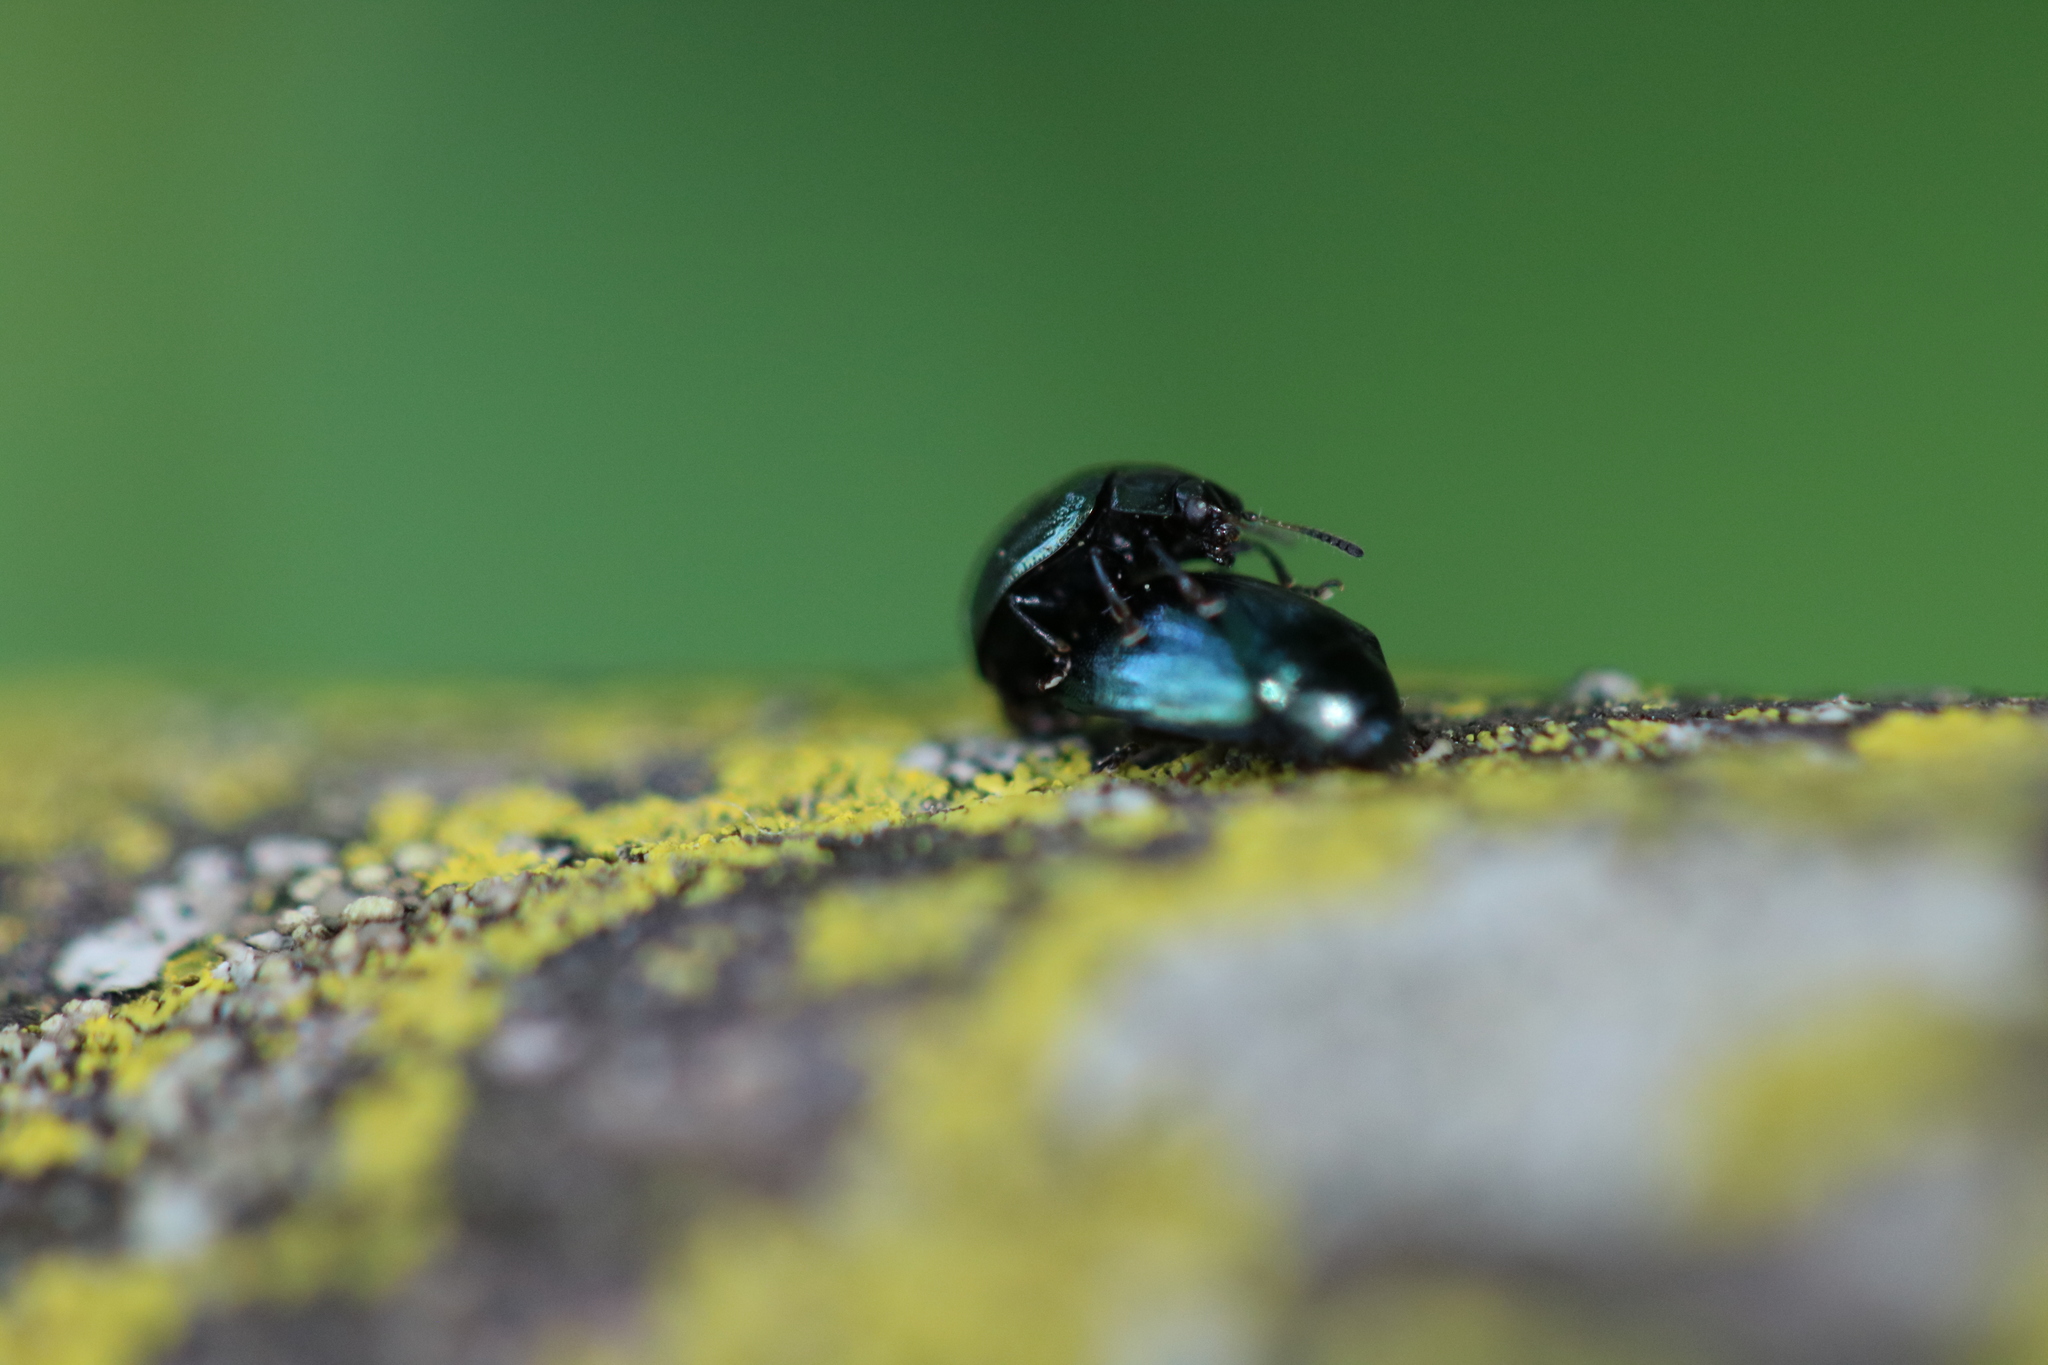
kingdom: Animalia
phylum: Arthropoda
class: Insecta
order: Coleoptera
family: Chrysomelidae
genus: Plagiodera
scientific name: Plagiodera versicolora
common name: Imported willow leaf beetle
